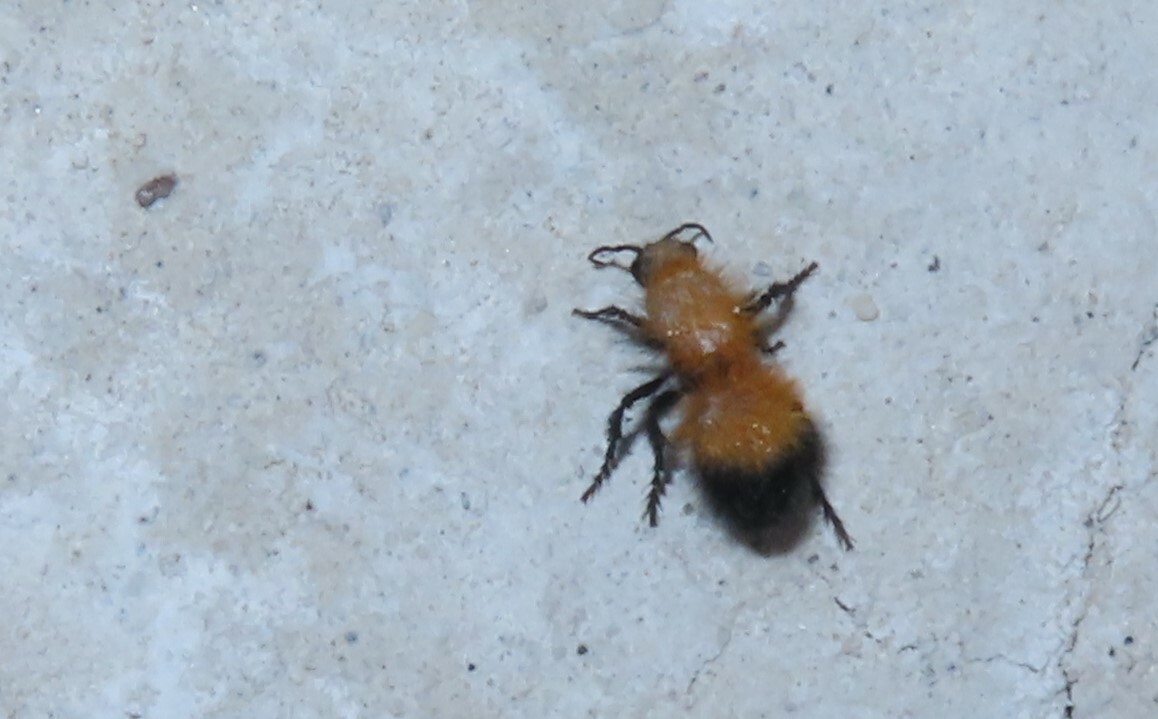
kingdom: Animalia
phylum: Arthropoda
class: Insecta
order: Hymenoptera
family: Mutillidae
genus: Dasymutilla
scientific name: Dasymutilla arenivaga
